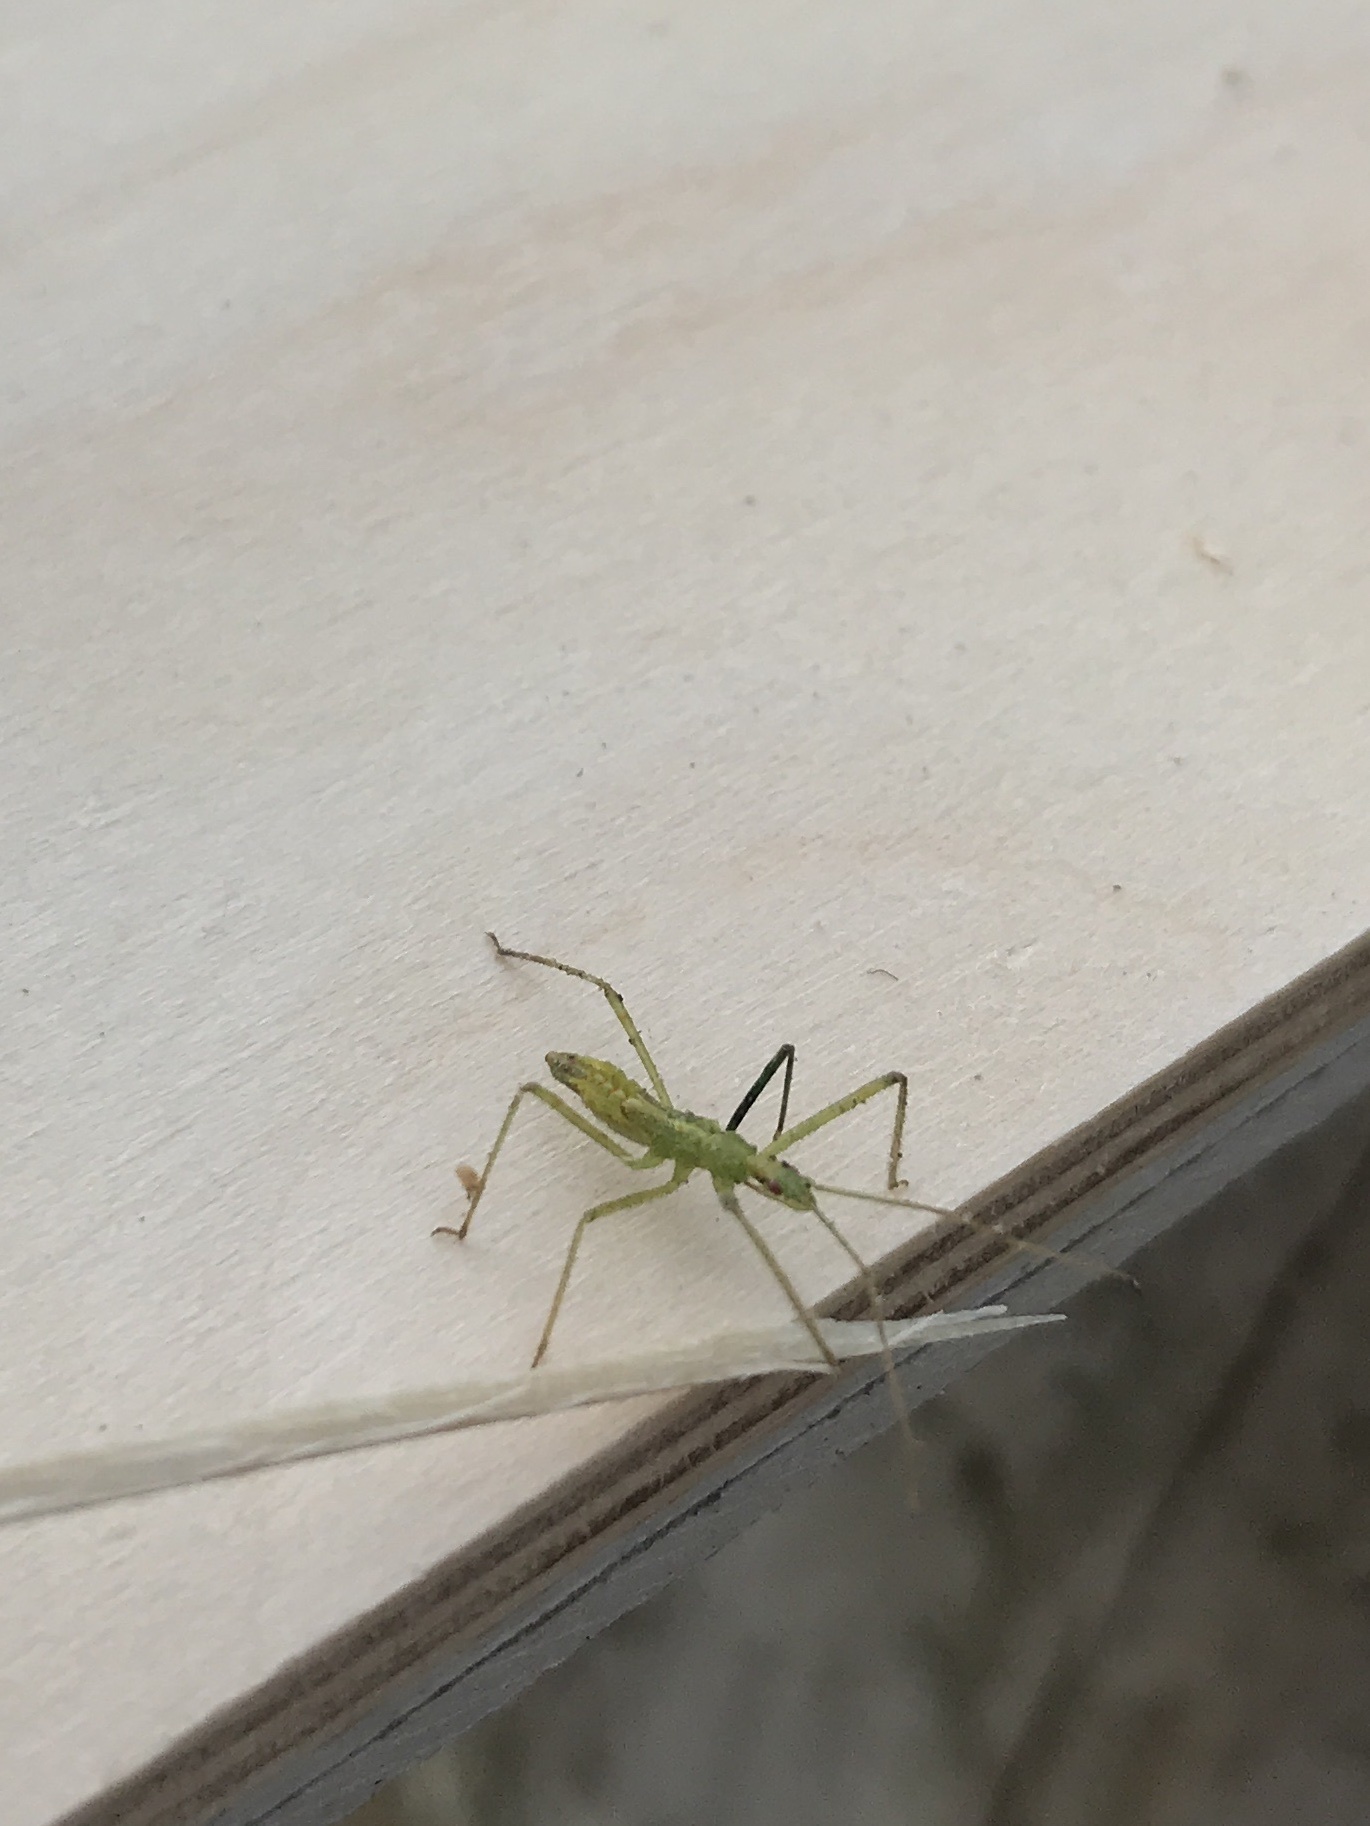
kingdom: Animalia
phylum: Arthropoda
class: Insecta
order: Hemiptera
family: Reduviidae
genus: Zelus
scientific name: Zelus luridus
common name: Pale green assassin bug
